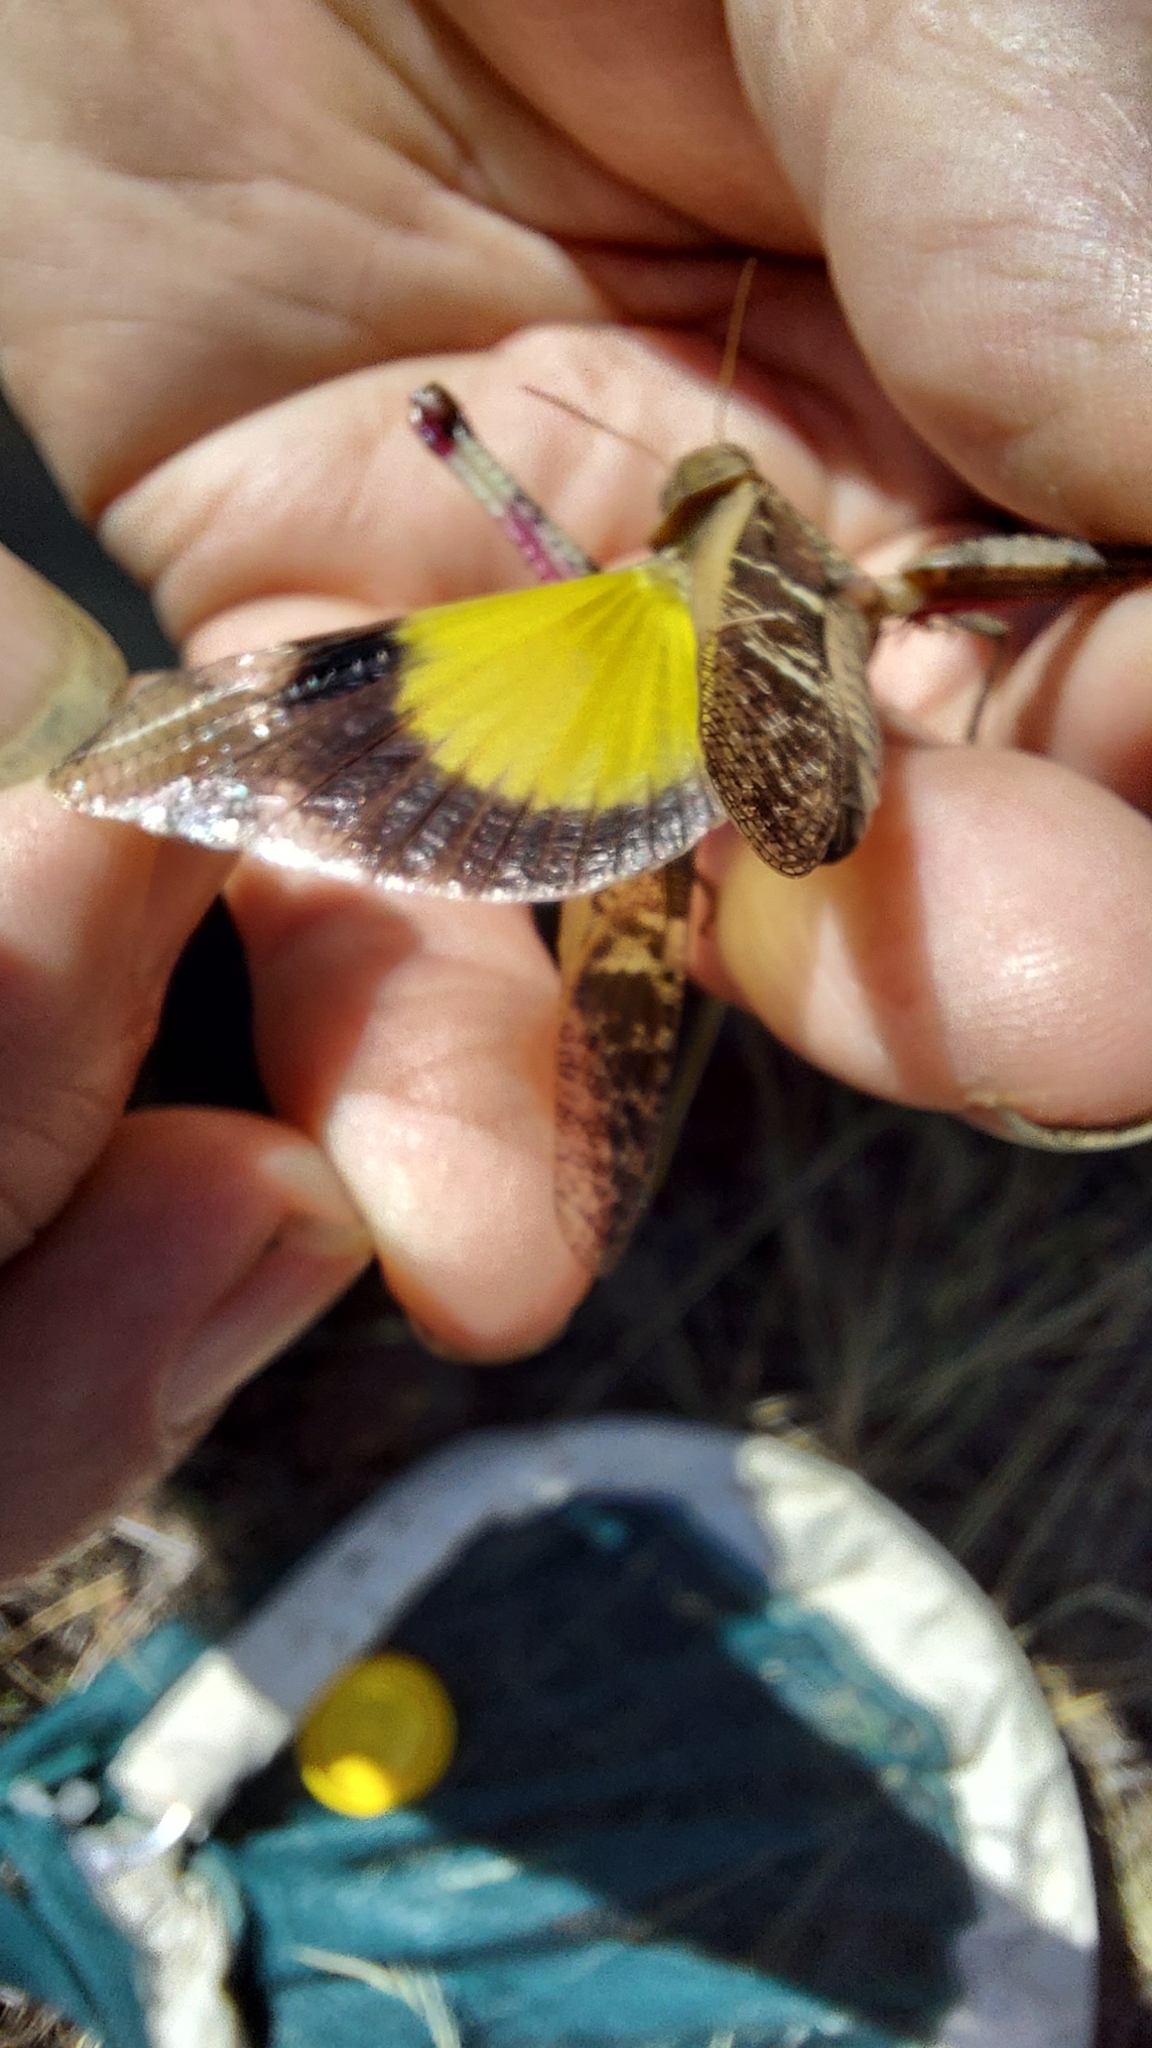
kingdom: Animalia
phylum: Arthropoda
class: Insecta
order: Orthoptera
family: Acrididae
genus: Gastrimargus
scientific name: Gastrimargus musicus
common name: Yellow-winged locust
